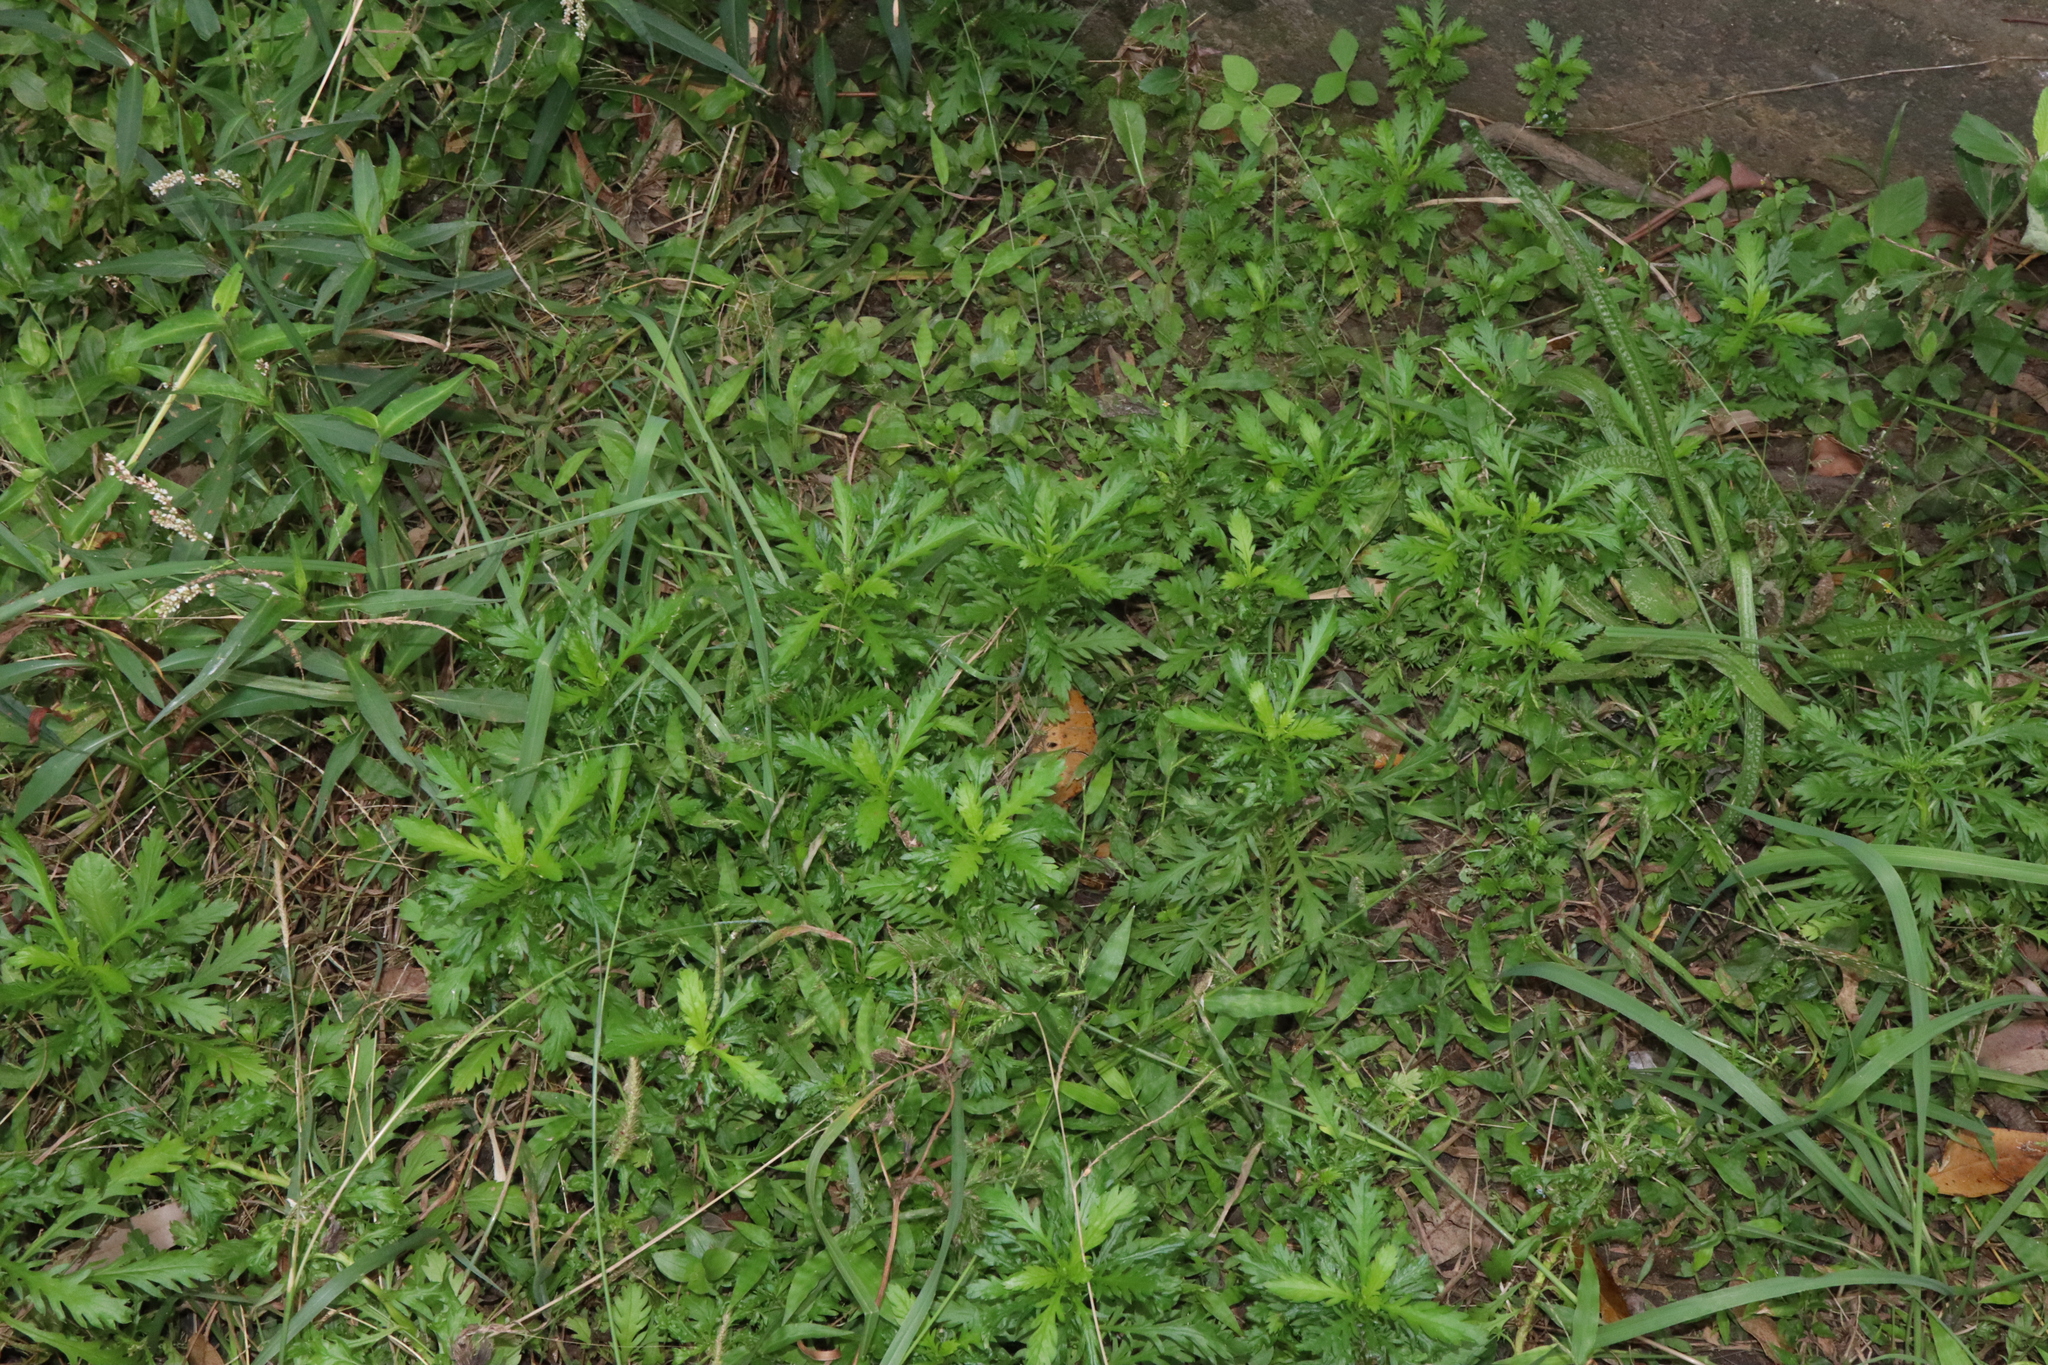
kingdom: Plantae
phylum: Tracheophyta
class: Magnoliopsida
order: Asterales
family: Asteraceae
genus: Euryops
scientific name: Euryops chrysanthemoides
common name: Bull's eye
